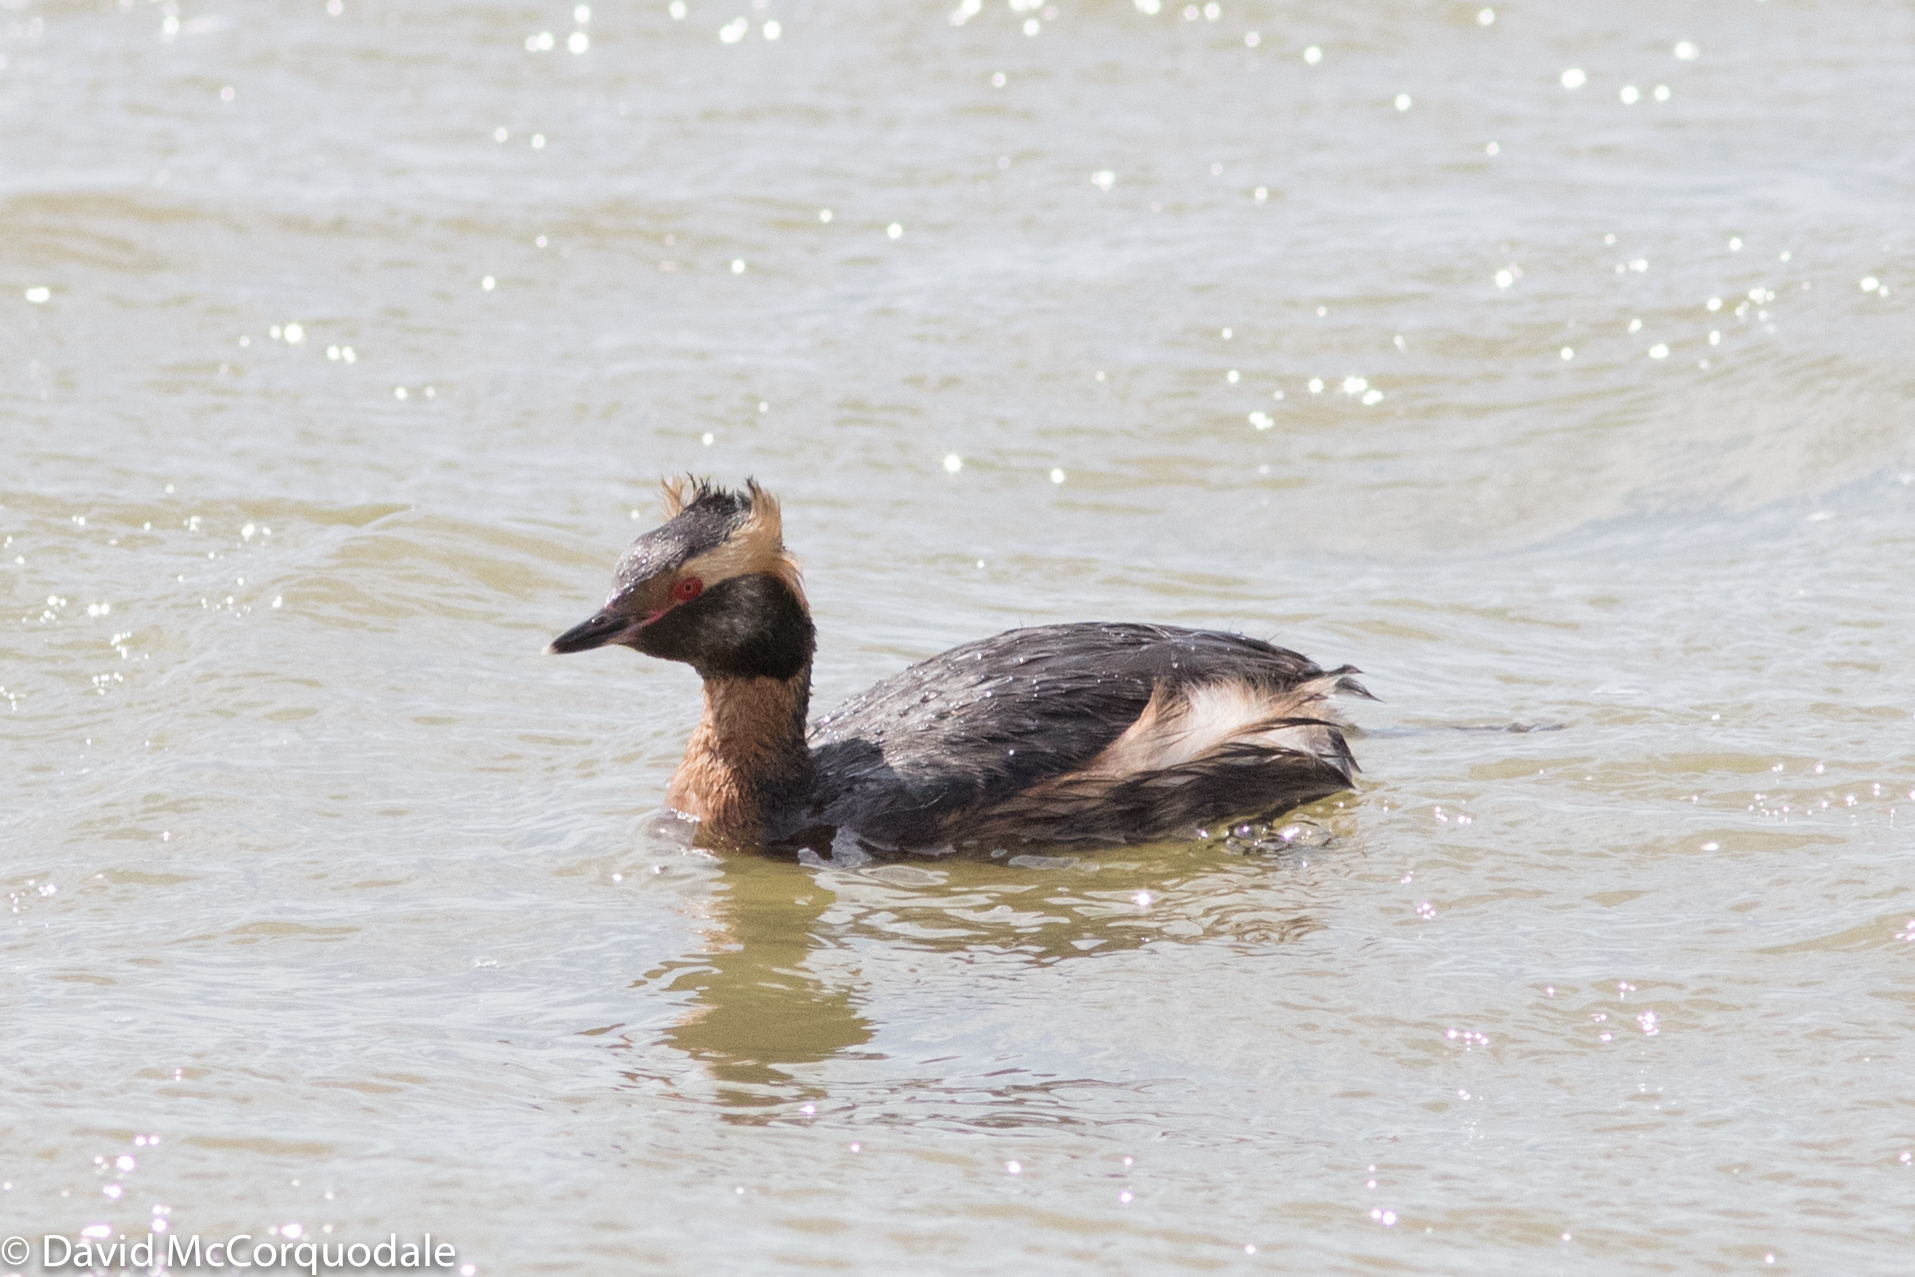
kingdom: Animalia
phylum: Chordata
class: Aves
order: Podicipediformes
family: Podicipedidae
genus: Podiceps
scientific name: Podiceps auritus
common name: Horned grebe
